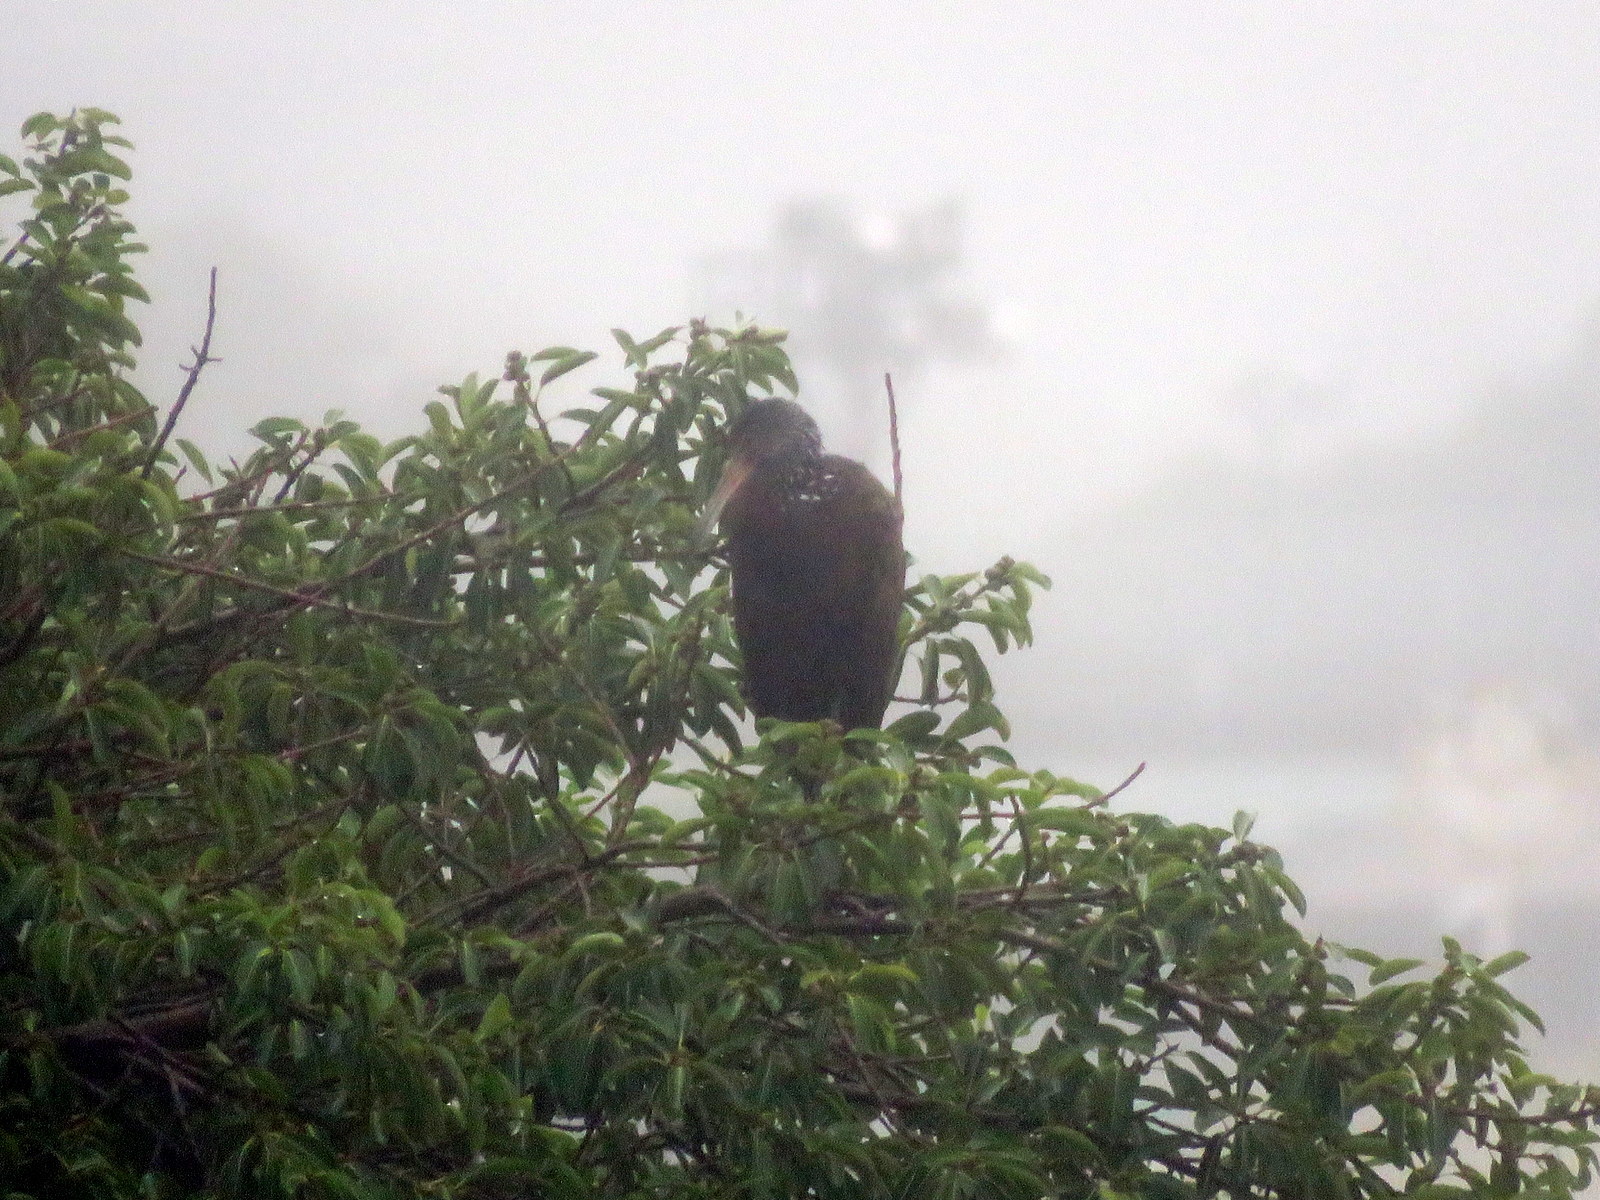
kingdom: Animalia
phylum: Chordata
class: Aves
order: Gruiformes
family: Aramidae
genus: Aramus
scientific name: Aramus guarauna
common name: Limpkin
